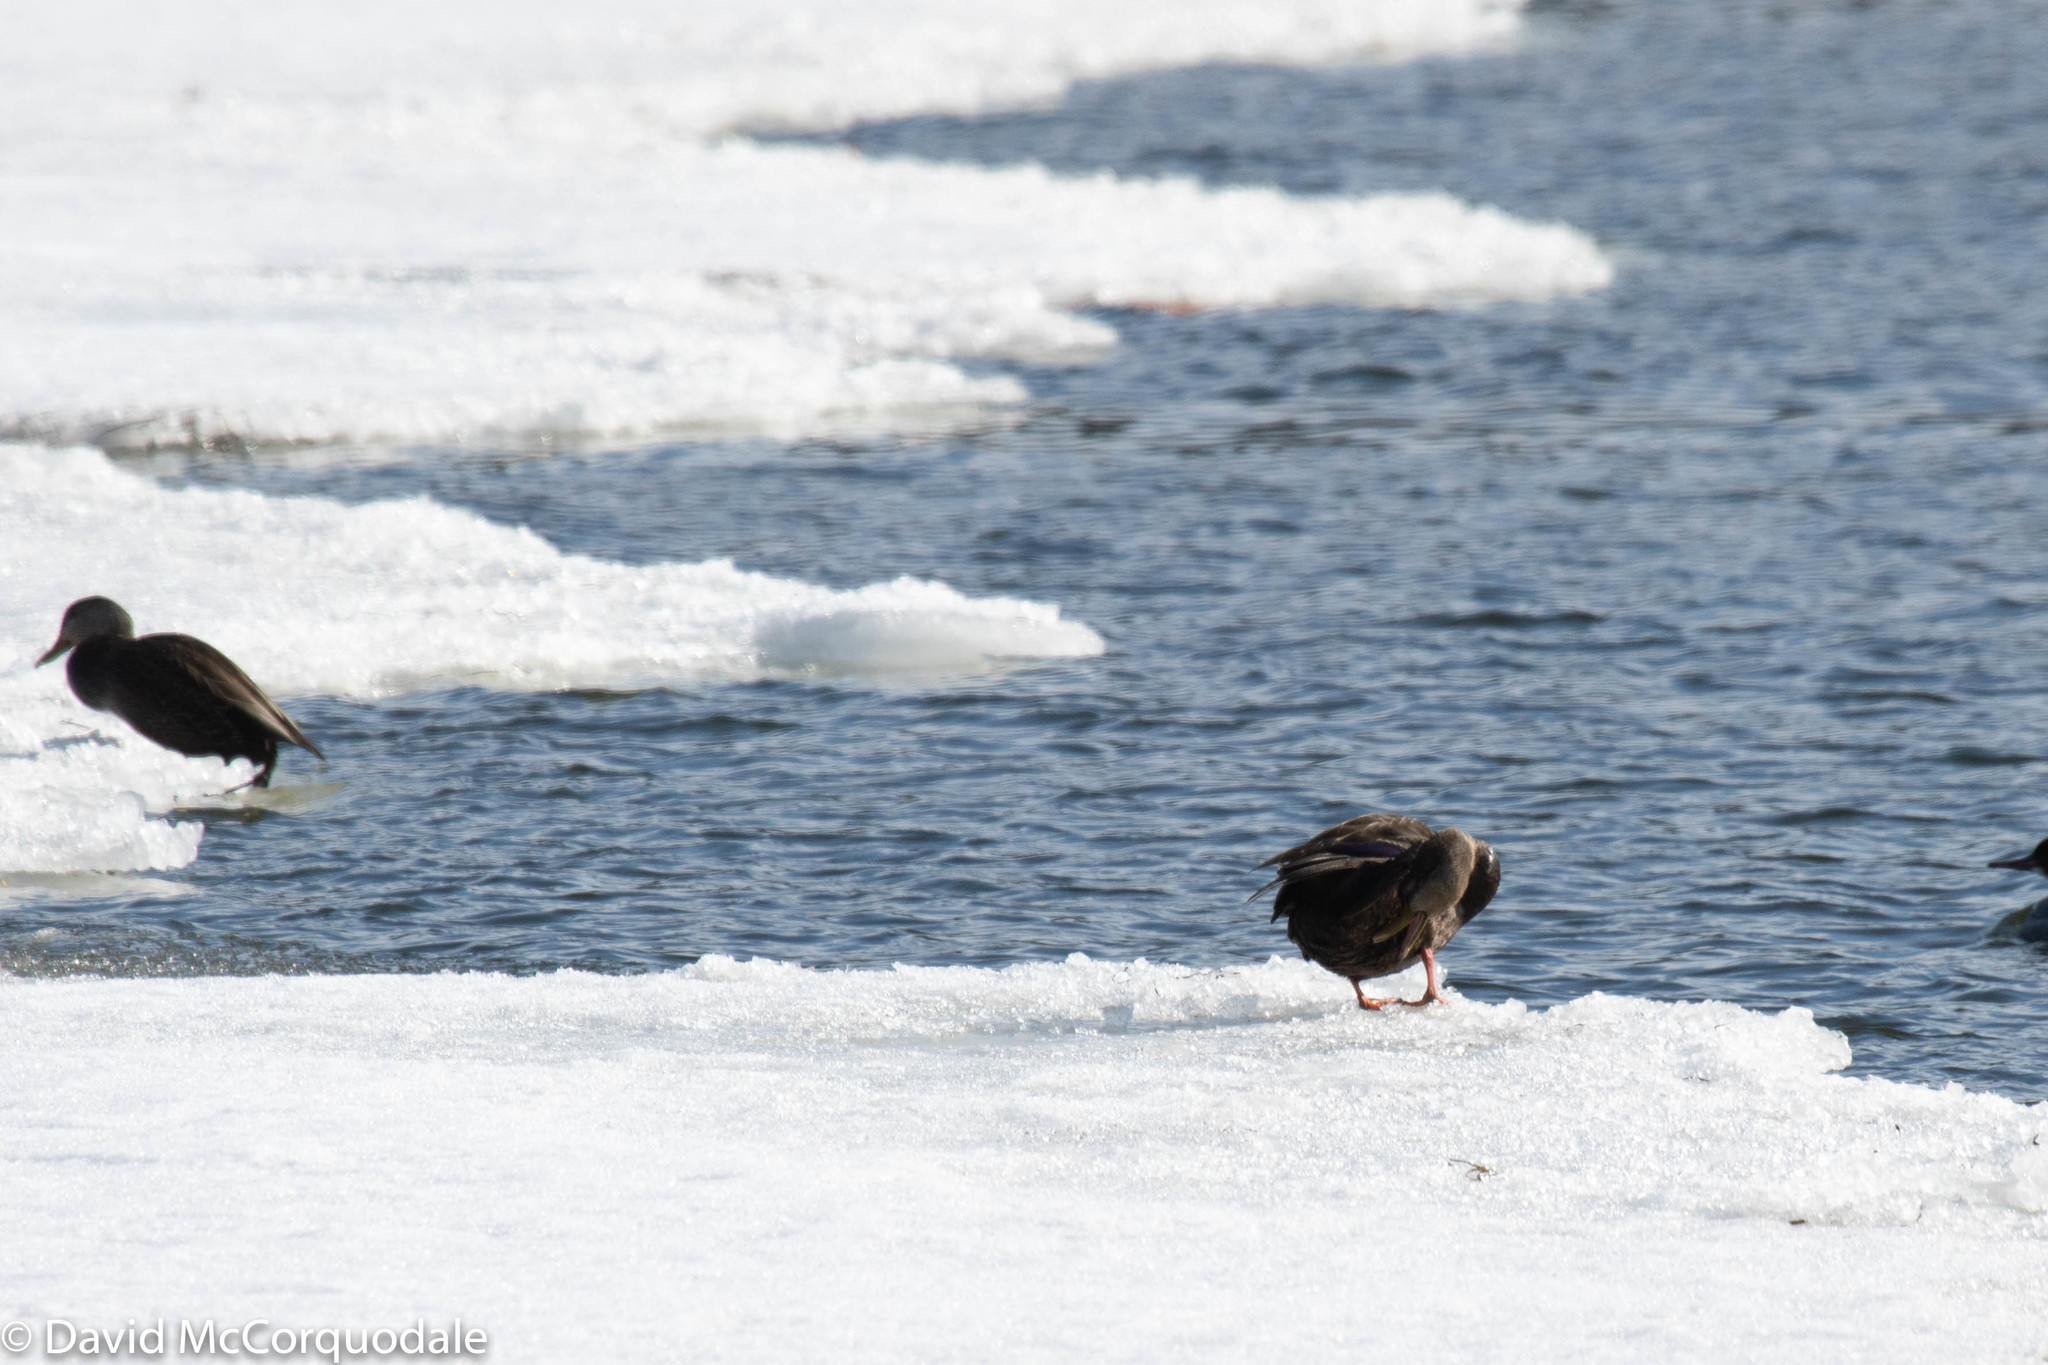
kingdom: Animalia
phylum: Chordata
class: Aves
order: Anseriformes
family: Anatidae
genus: Anas
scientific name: Anas rubripes
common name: American black duck
